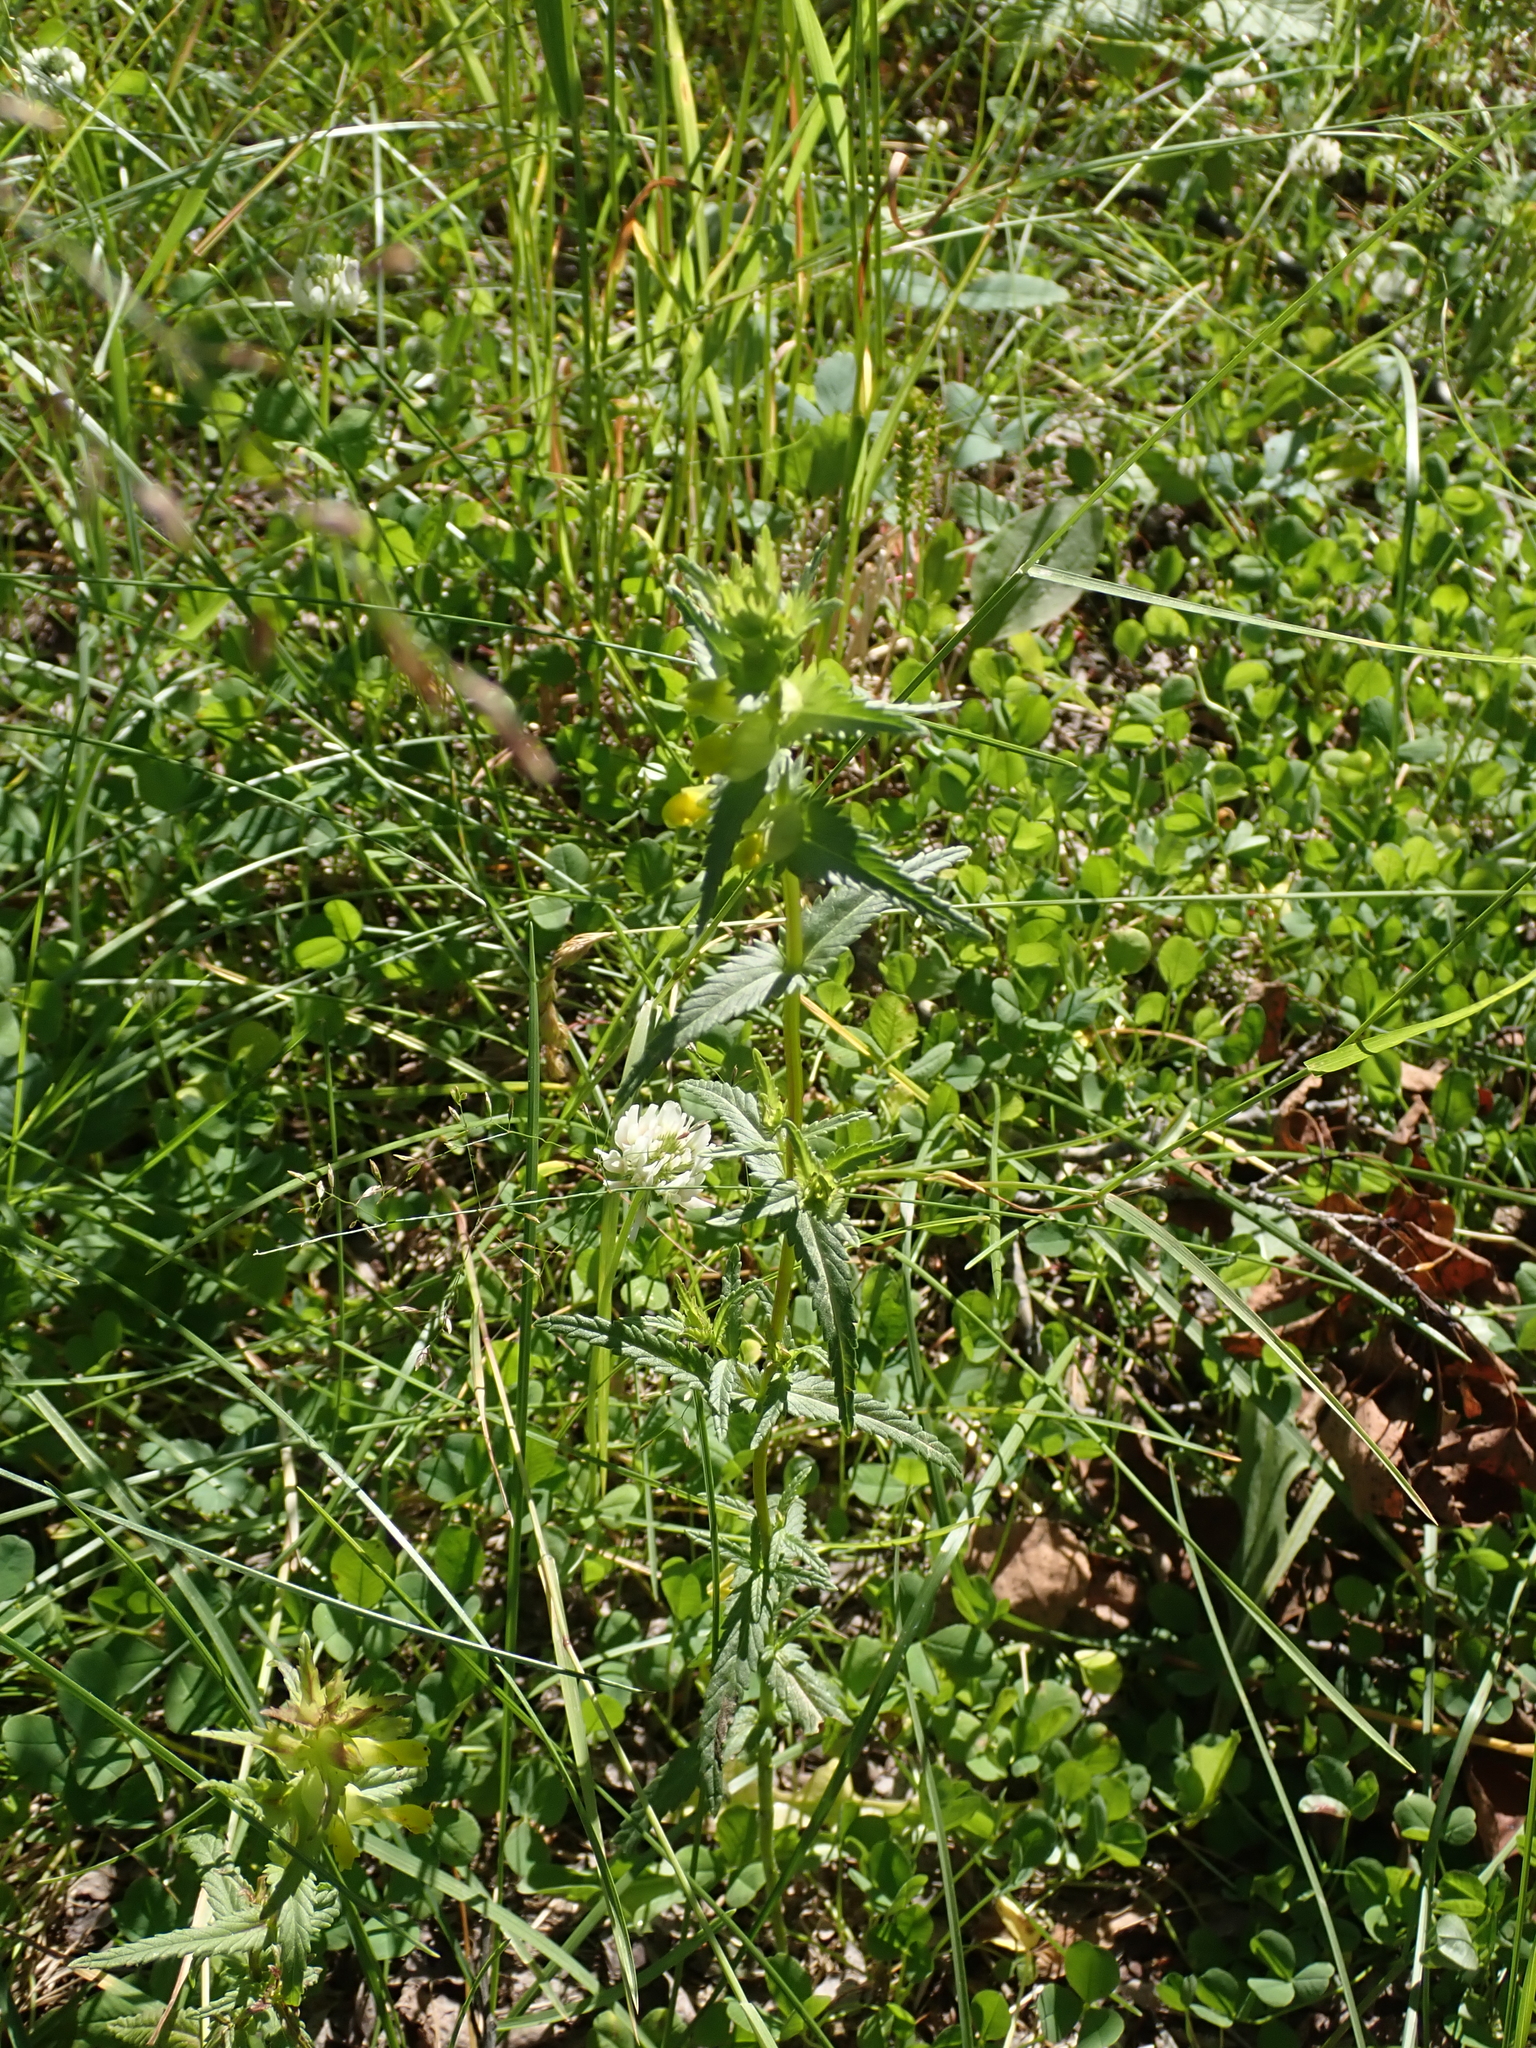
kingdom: Plantae
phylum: Tracheophyta
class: Magnoliopsida
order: Lamiales
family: Orobanchaceae
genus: Rhinanthus
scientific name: Rhinanthus groenlandicus
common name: Little yellow rattle
